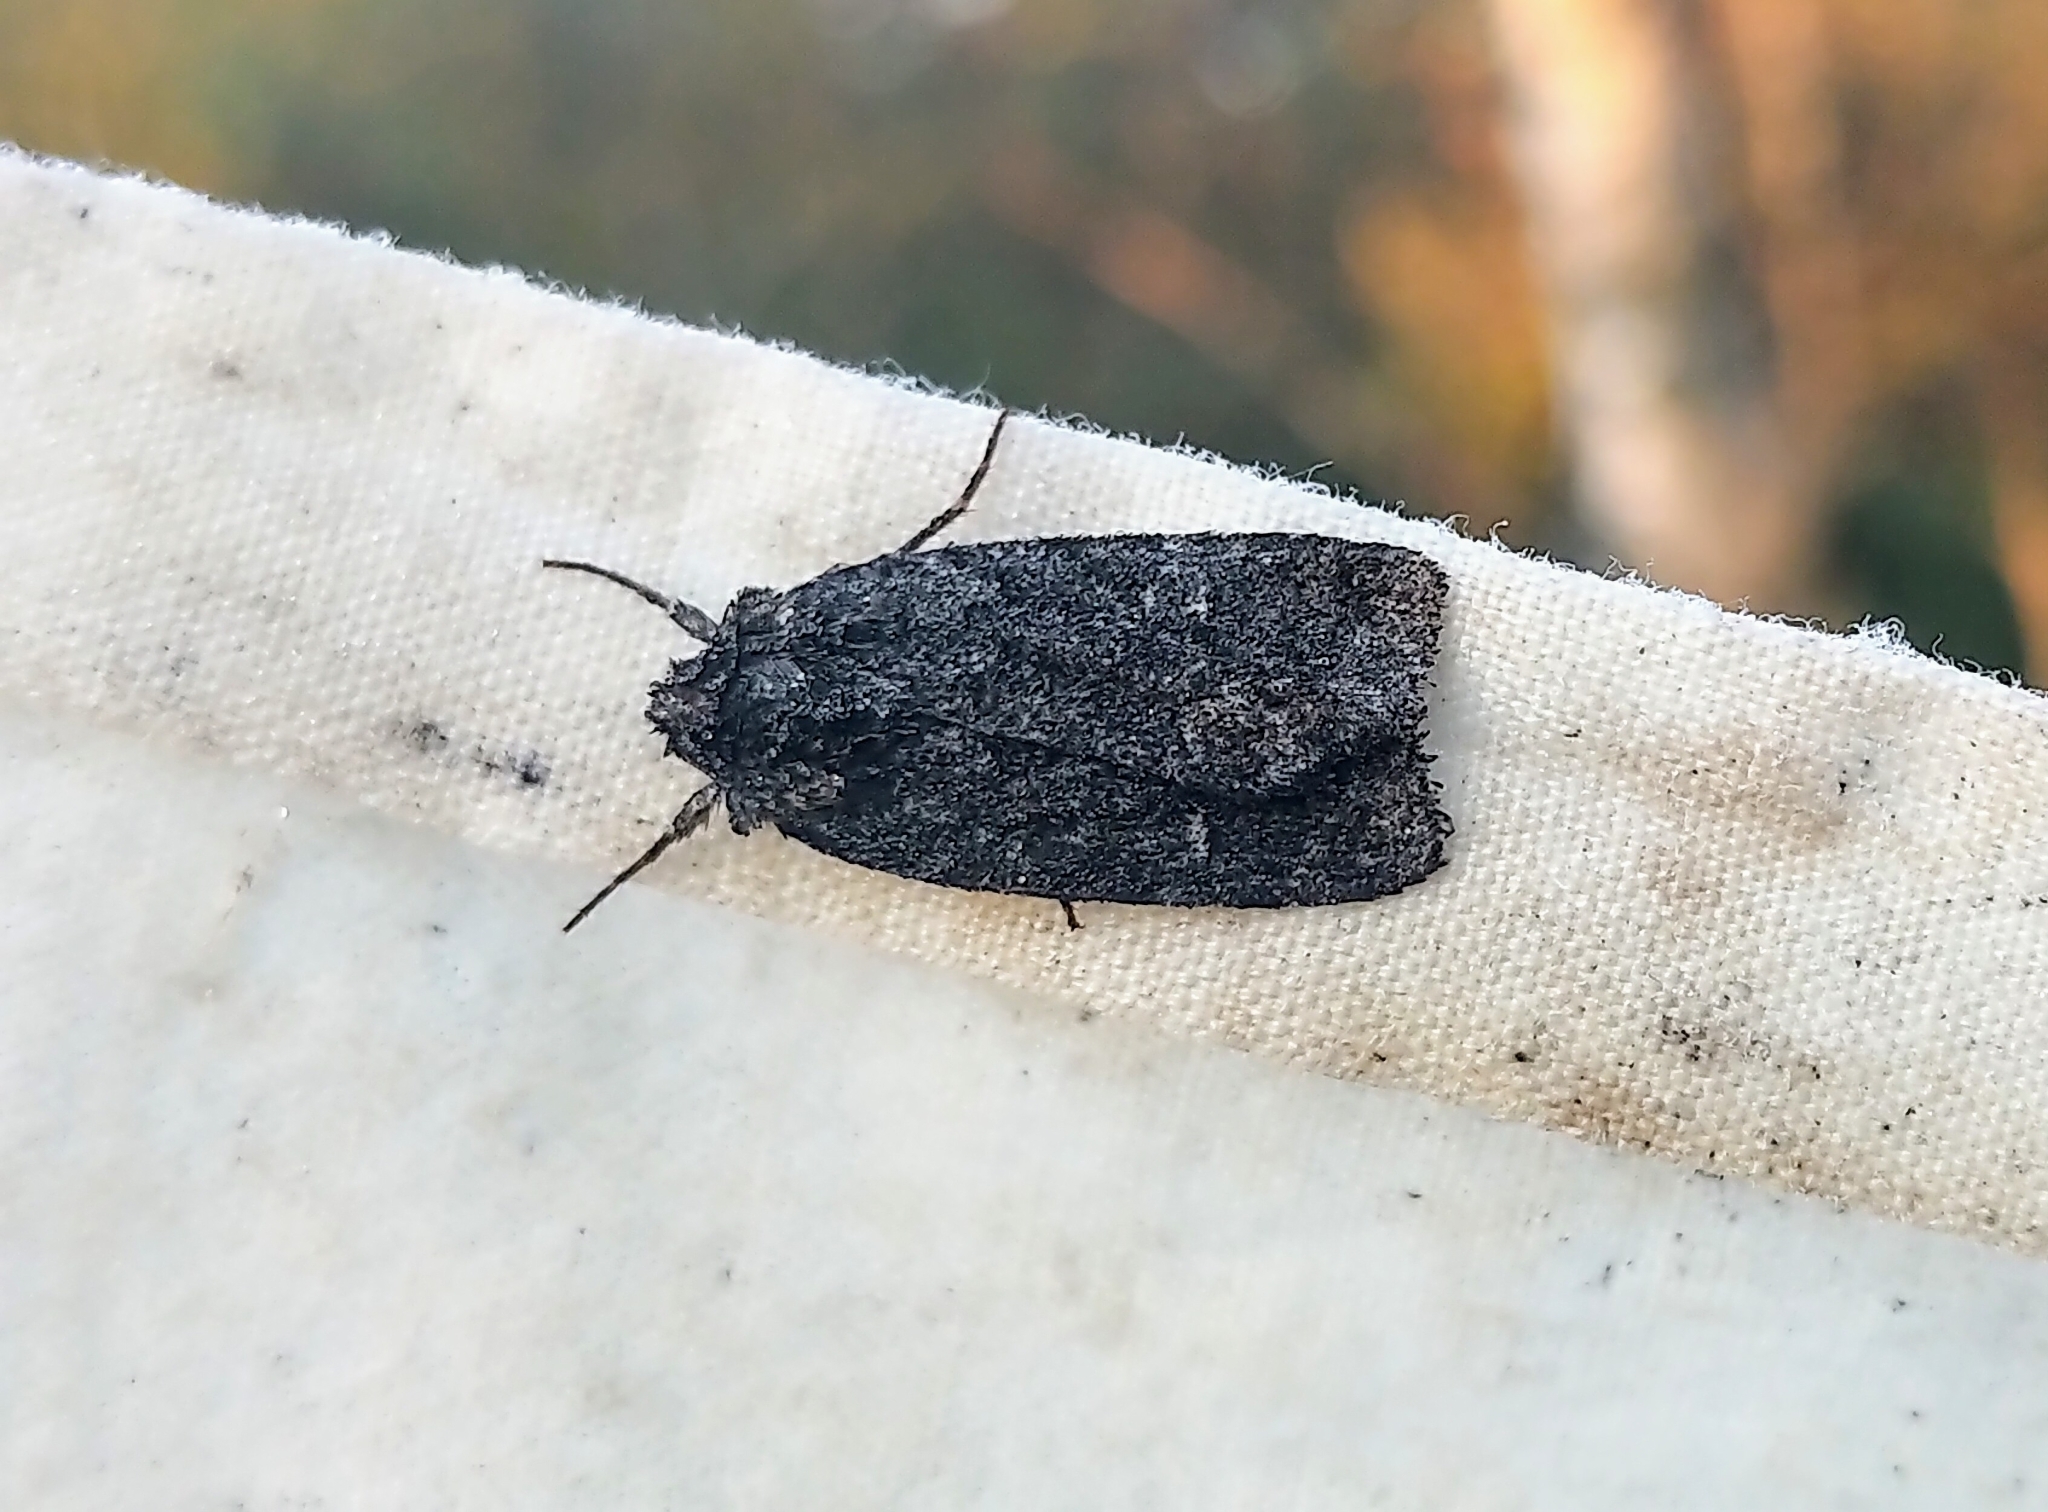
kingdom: Animalia
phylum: Arthropoda
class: Insecta
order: Lepidoptera
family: Noctuidae
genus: Sympistis
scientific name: Sympistis dentata
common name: Blueberry sallow
